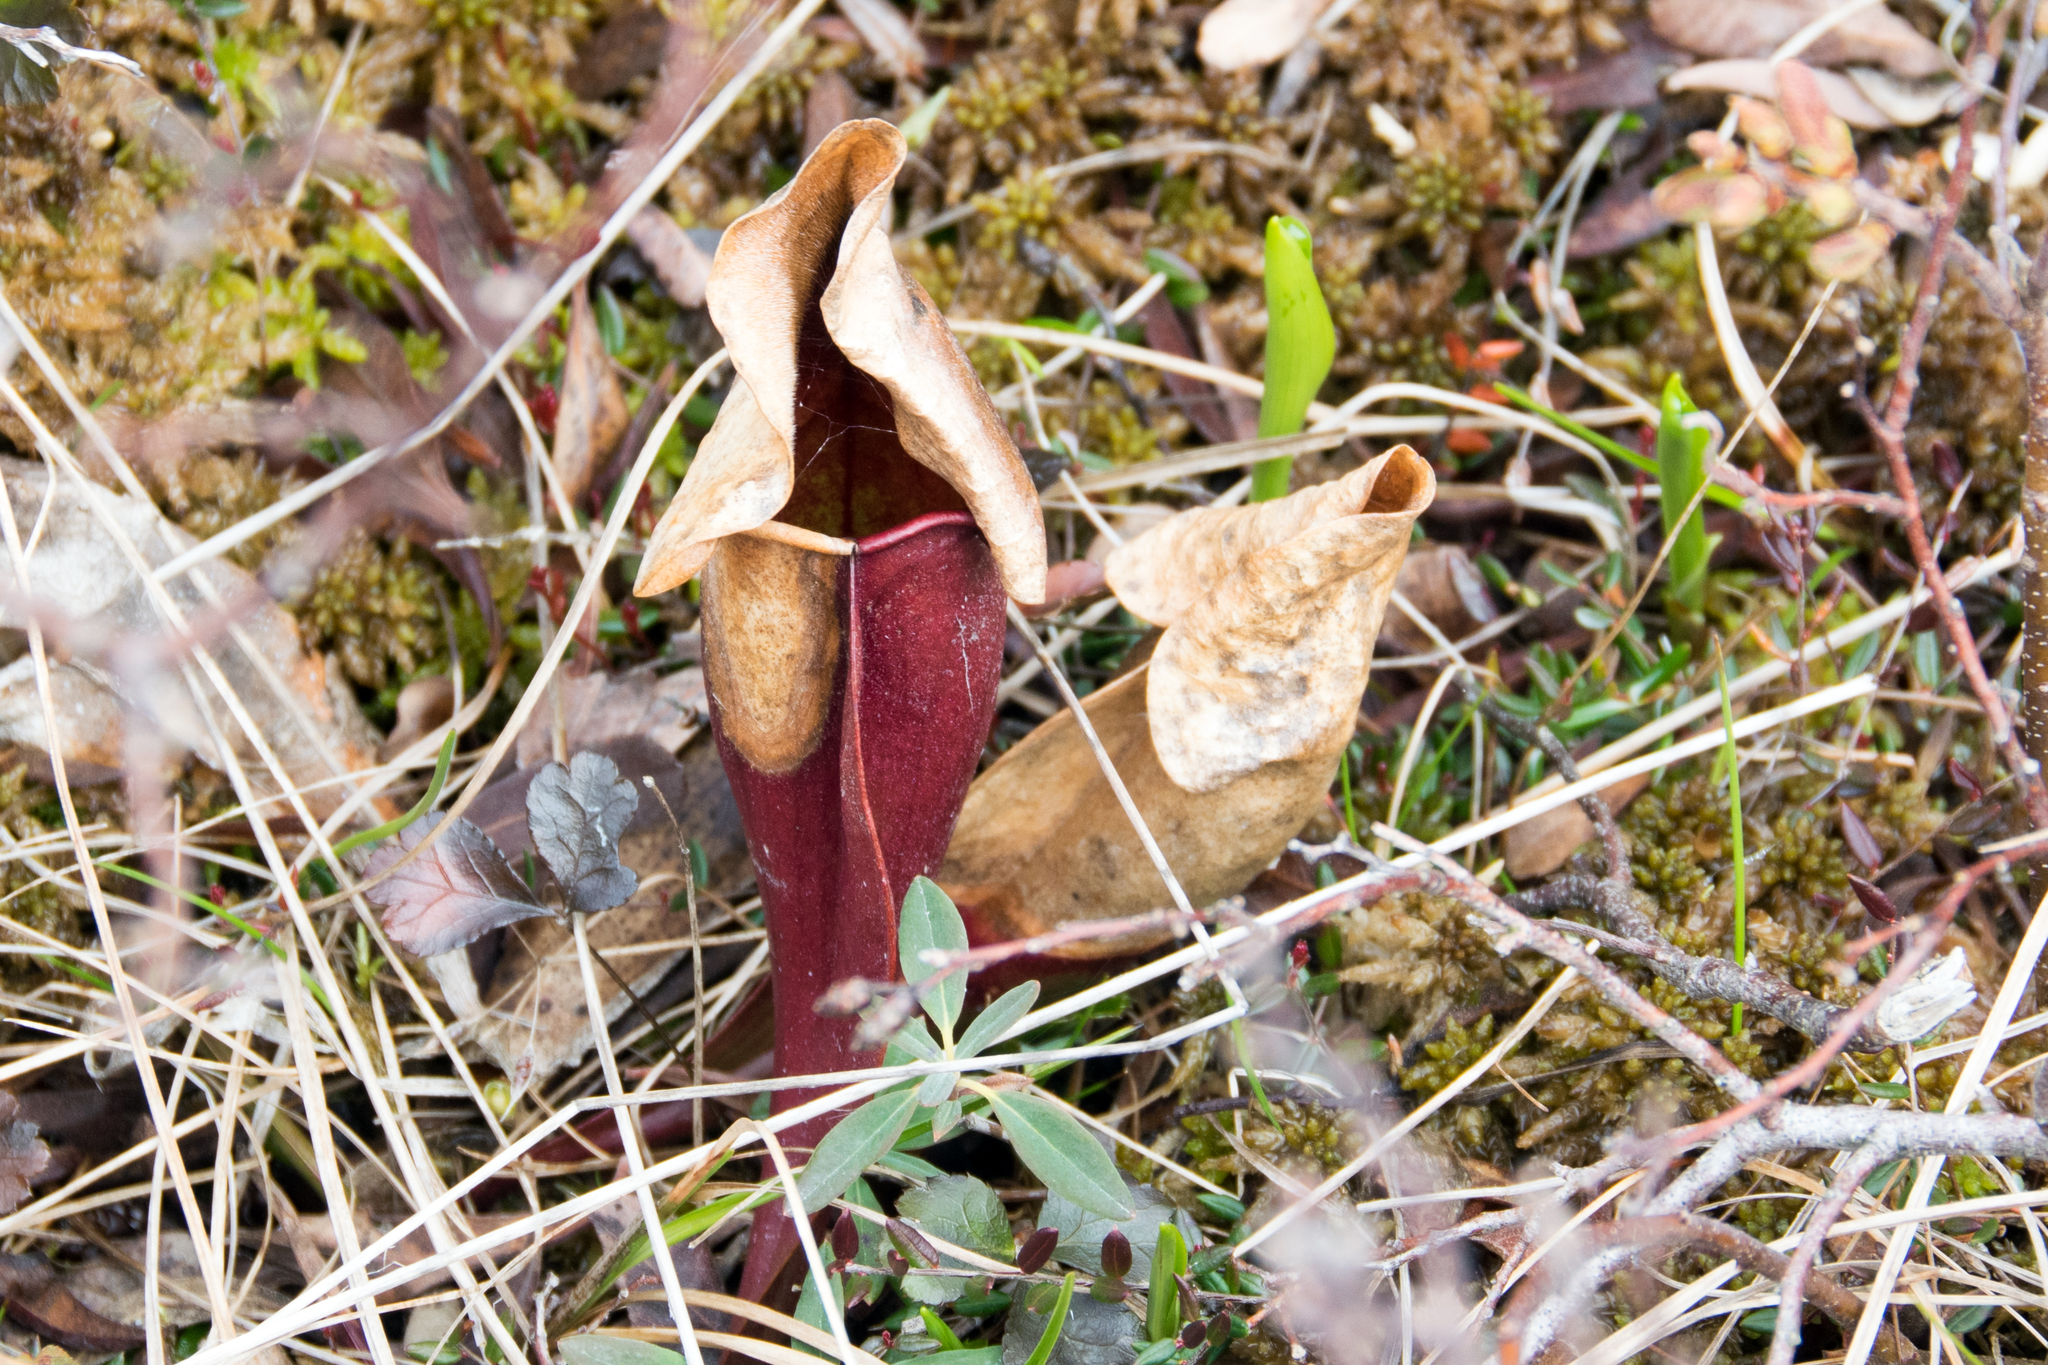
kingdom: Plantae
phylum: Tracheophyta
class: Magnoliopsida
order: Ericales
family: Sarraceniaceae
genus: Sarracenia
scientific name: Sarracenia purpurea
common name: Pitcherplant
